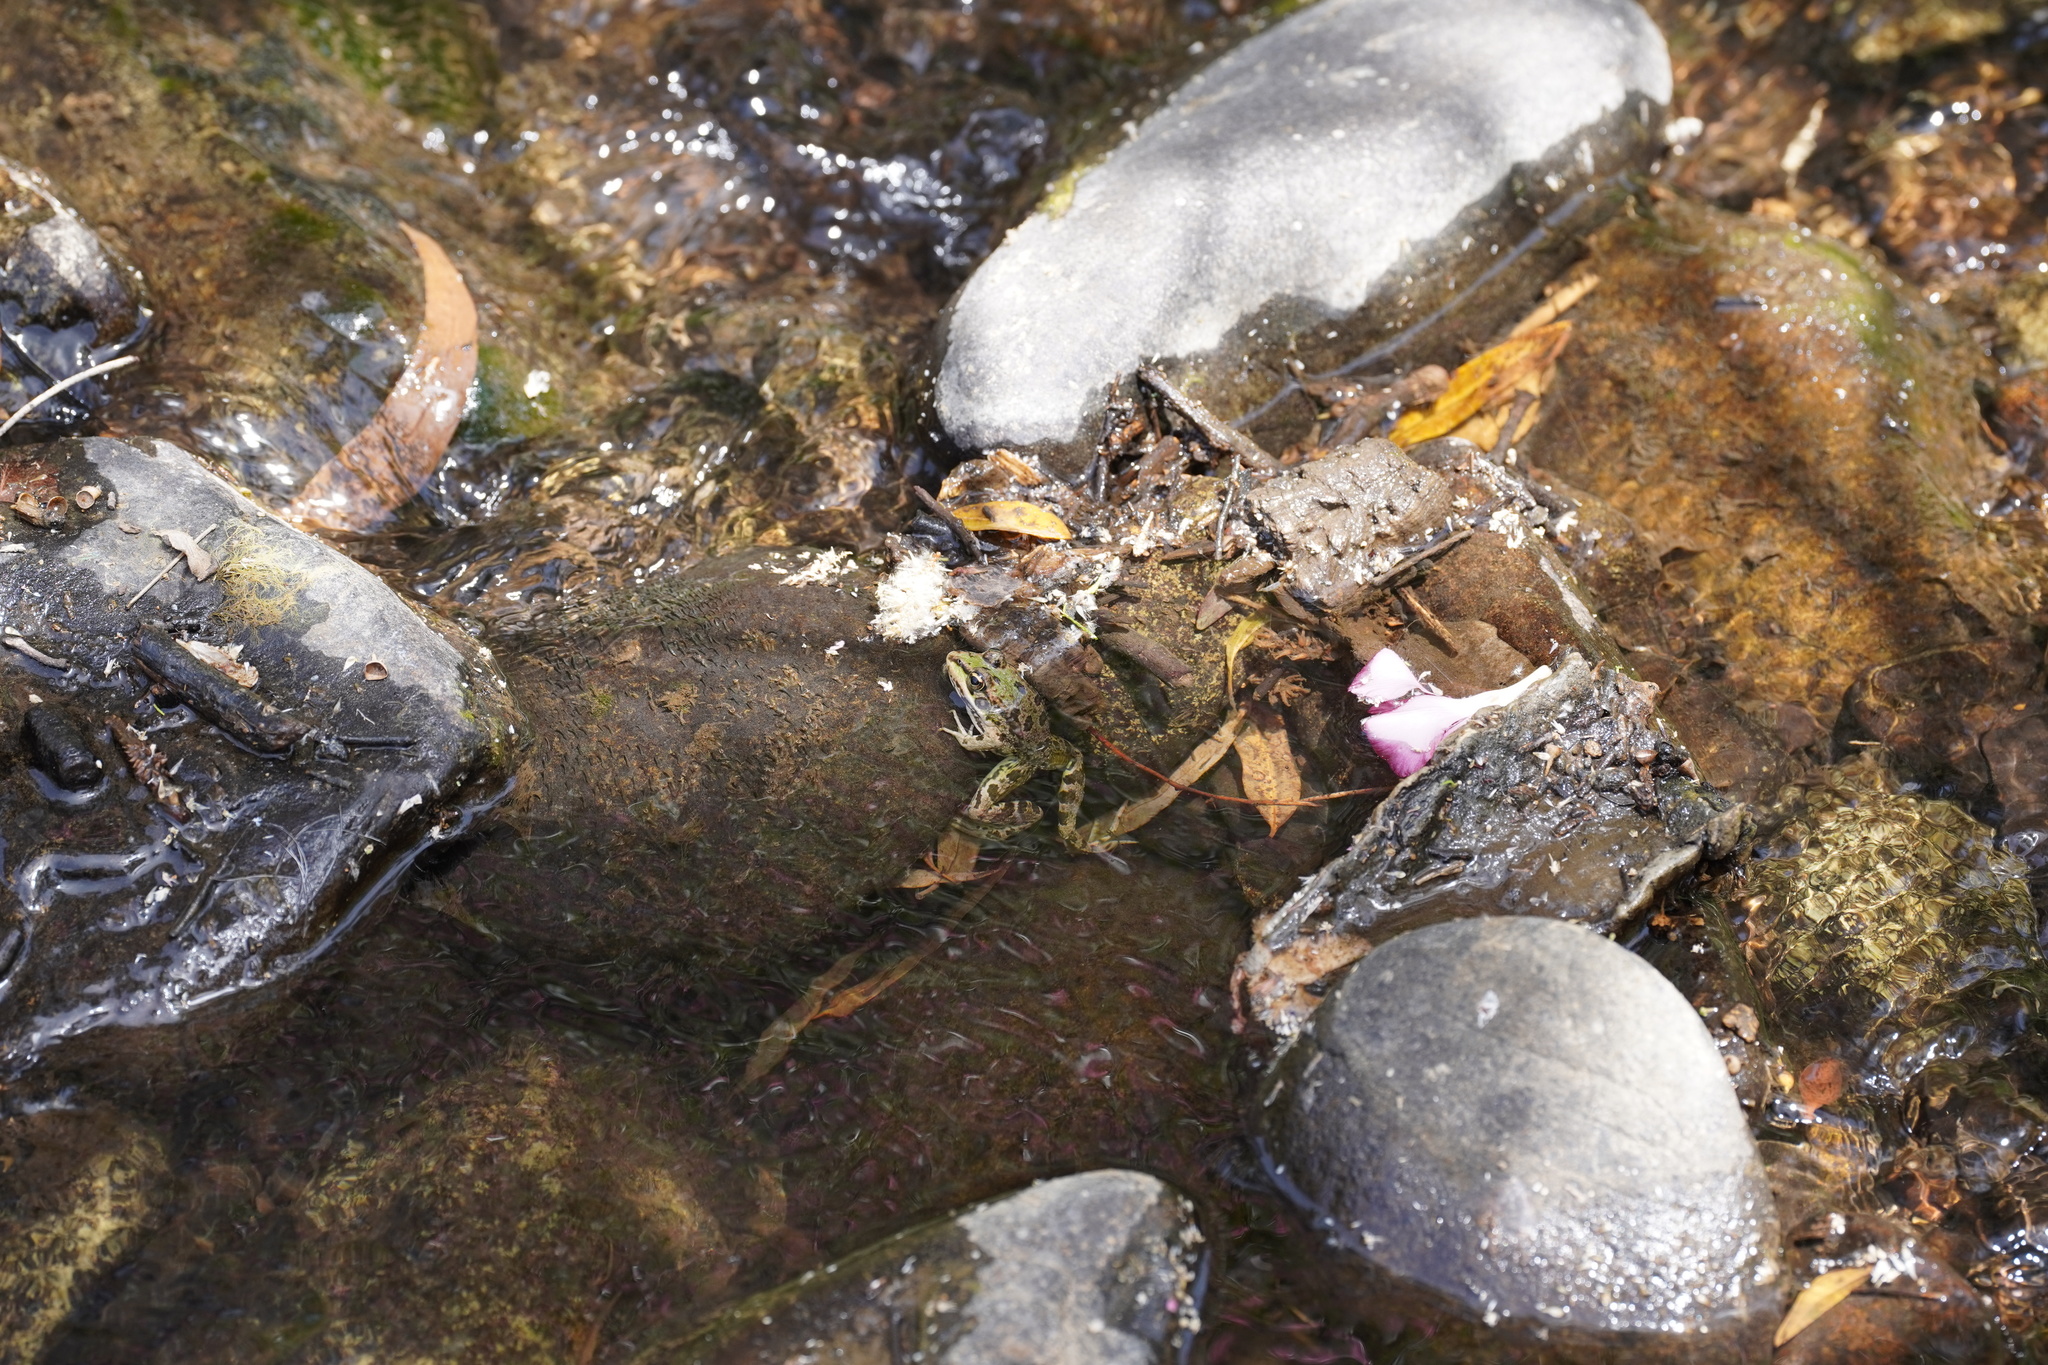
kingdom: Animalia
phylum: Chordata
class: Amphibia
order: Anura
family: Ranidae
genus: Pelophylax
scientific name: Pelophylax perezi
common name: Perez's frog
